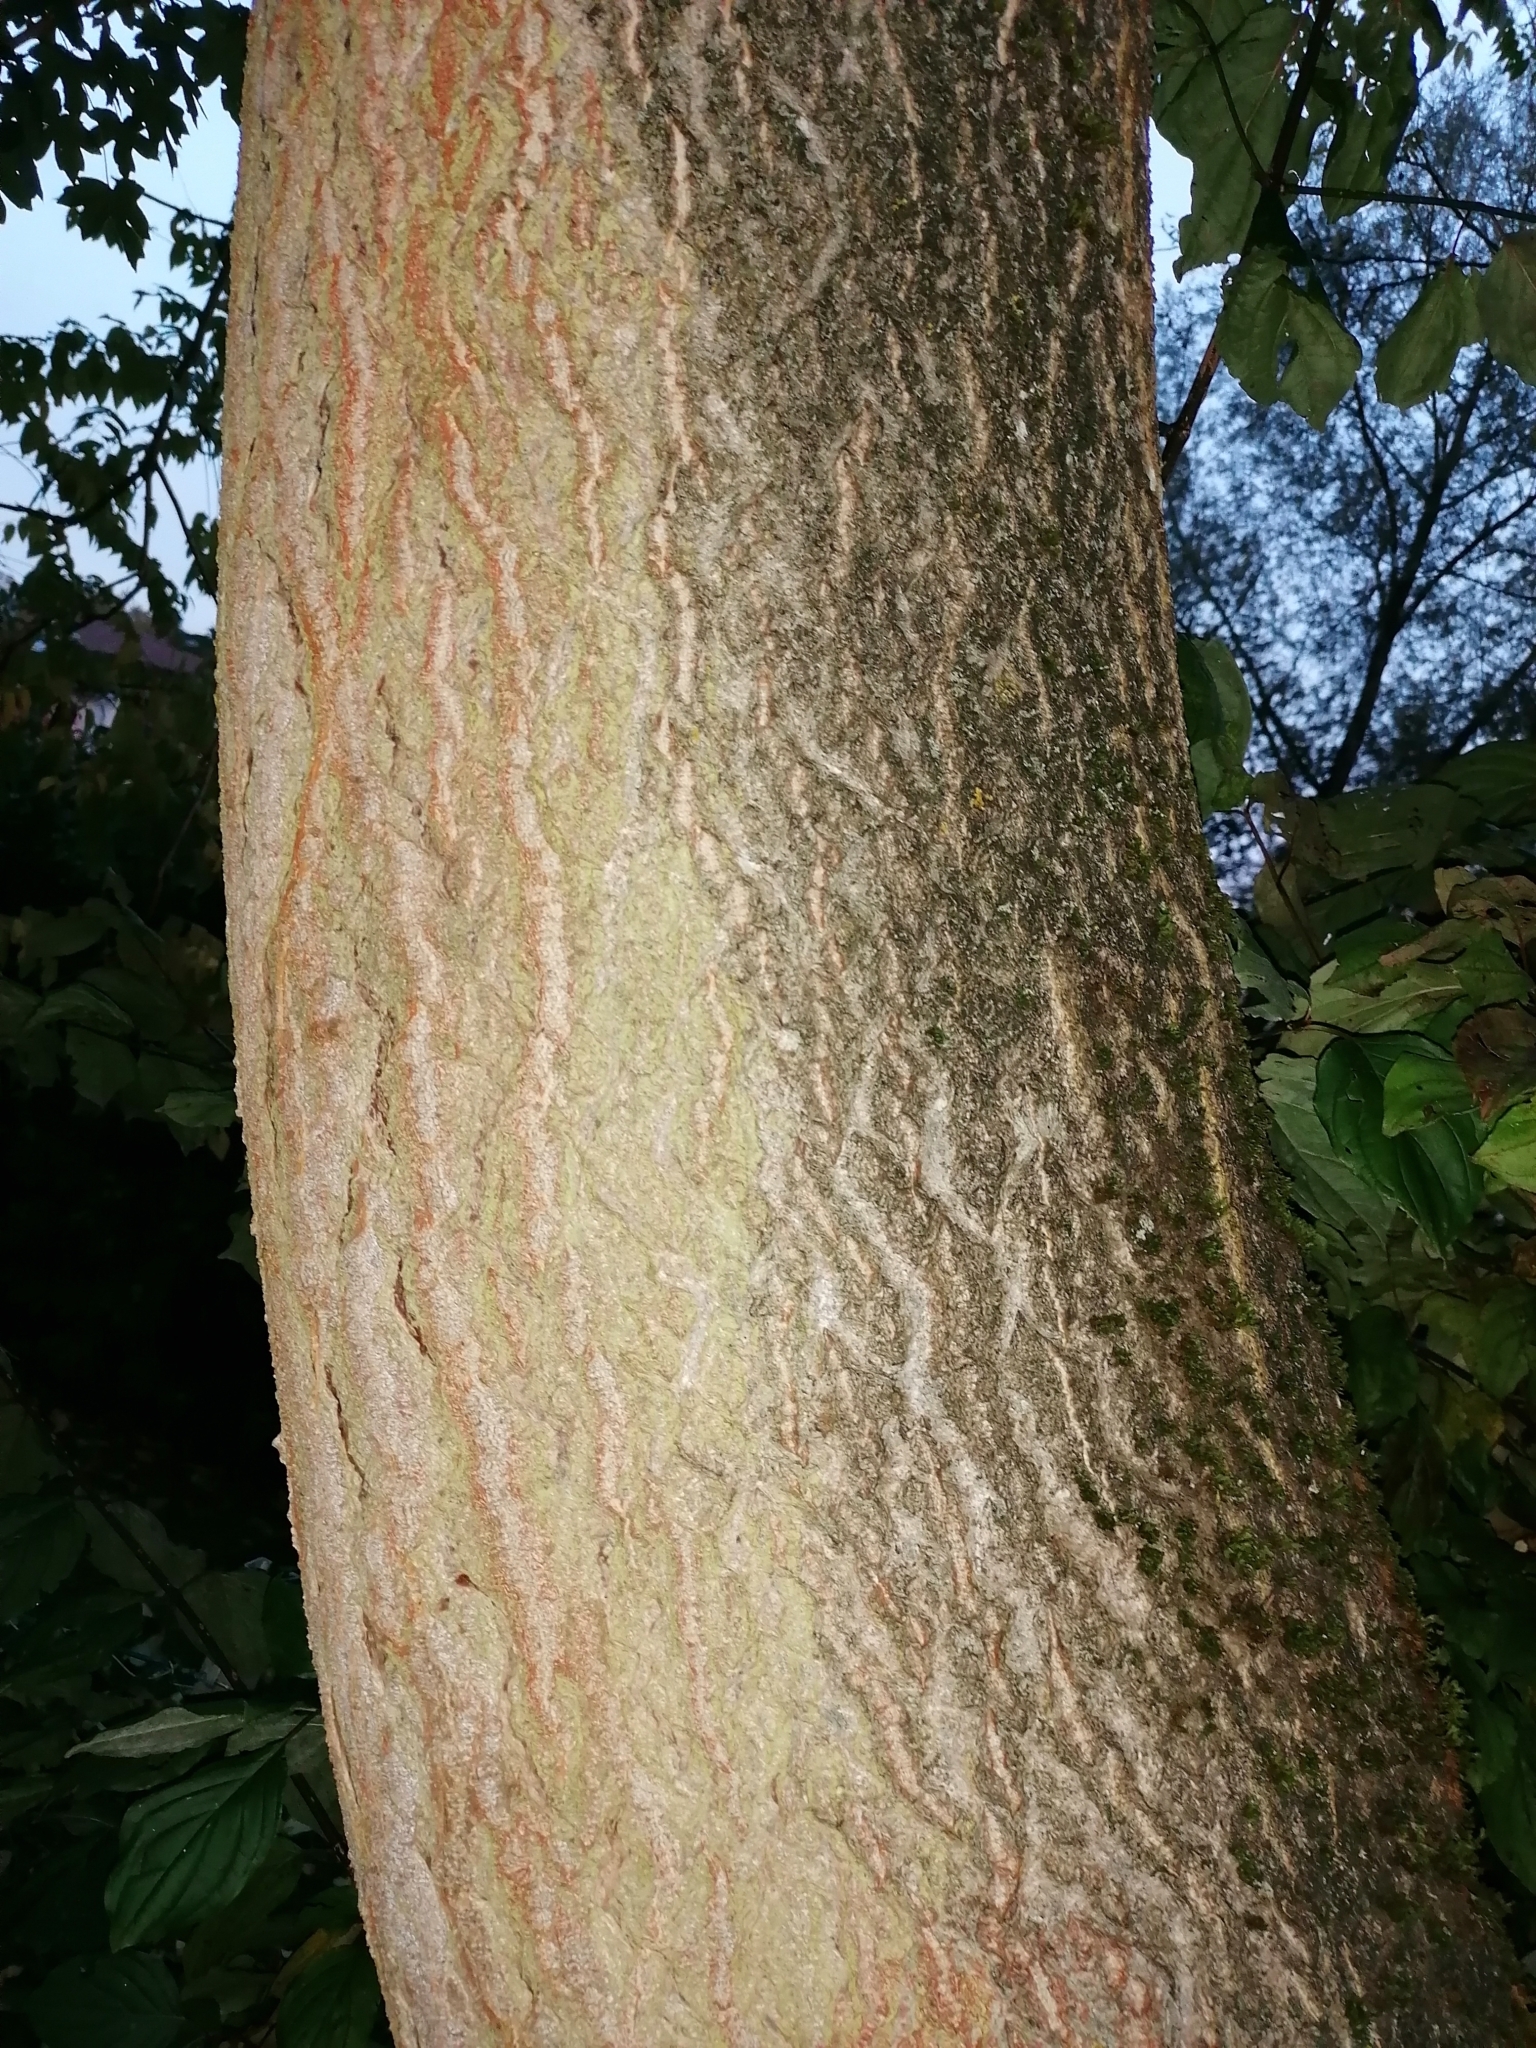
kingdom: Plantae
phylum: Tracheophyta
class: Magnoliopsida
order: Sapindales
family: Simaroubaceae
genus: Ailanthus
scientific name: Ailanthus altissima
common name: Tree-of-heaven
